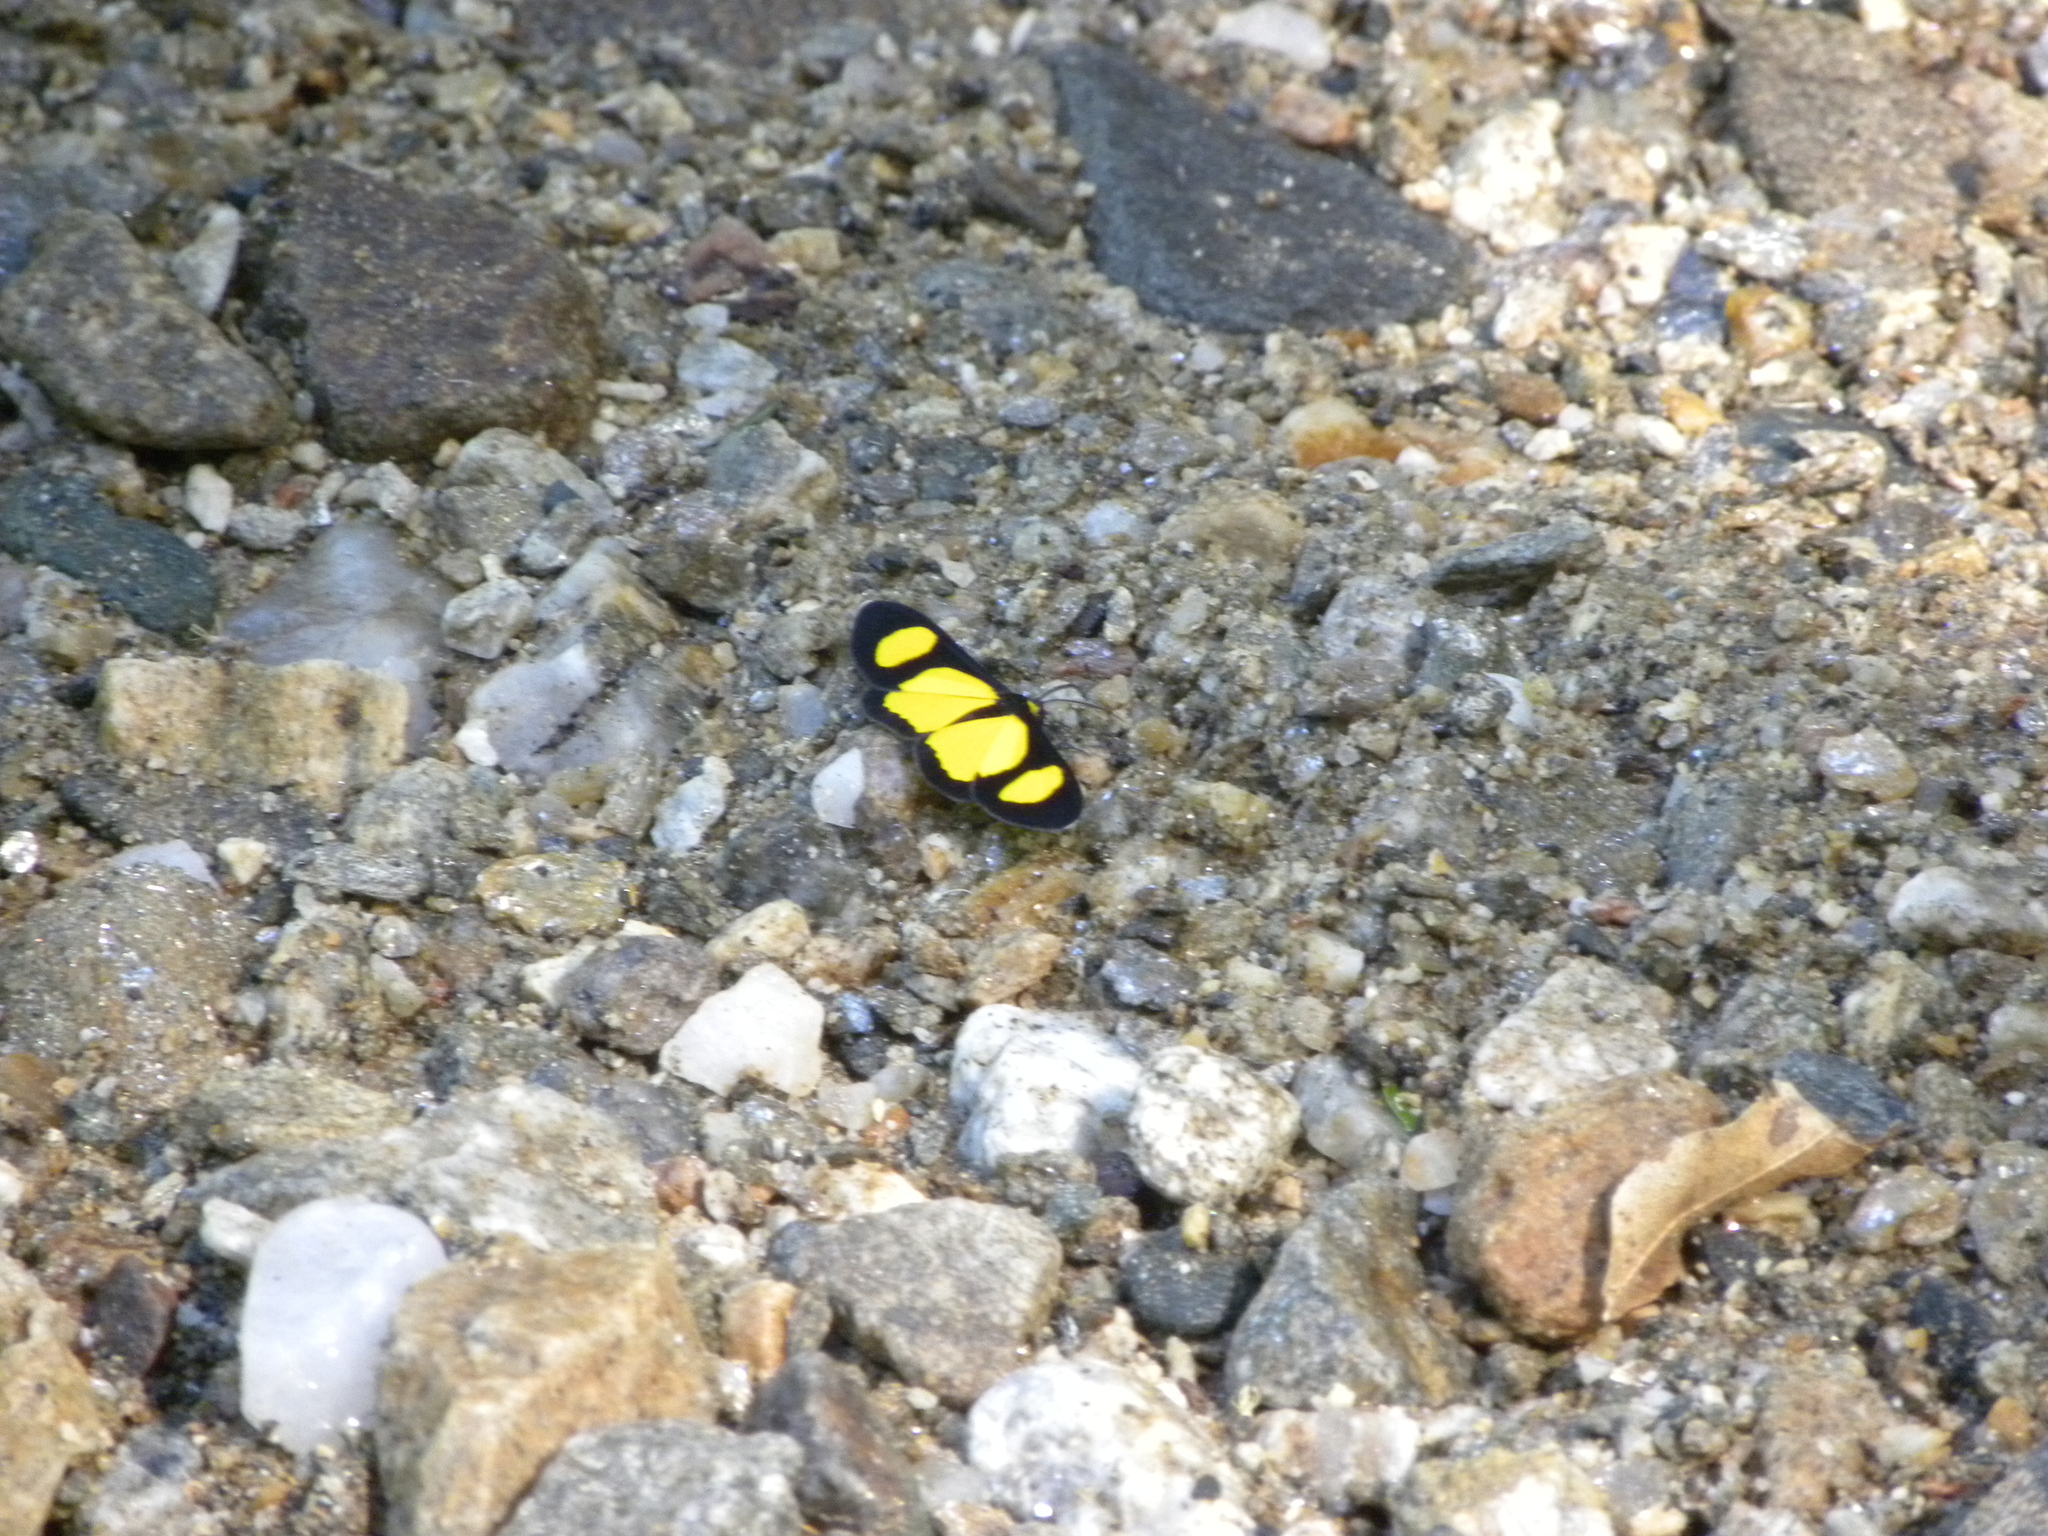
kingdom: Animalia
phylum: Arthropoda
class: Insecta
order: Lepidoptera
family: Geometridae
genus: Cyllopoda
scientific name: Cyllopoda jatropharia
